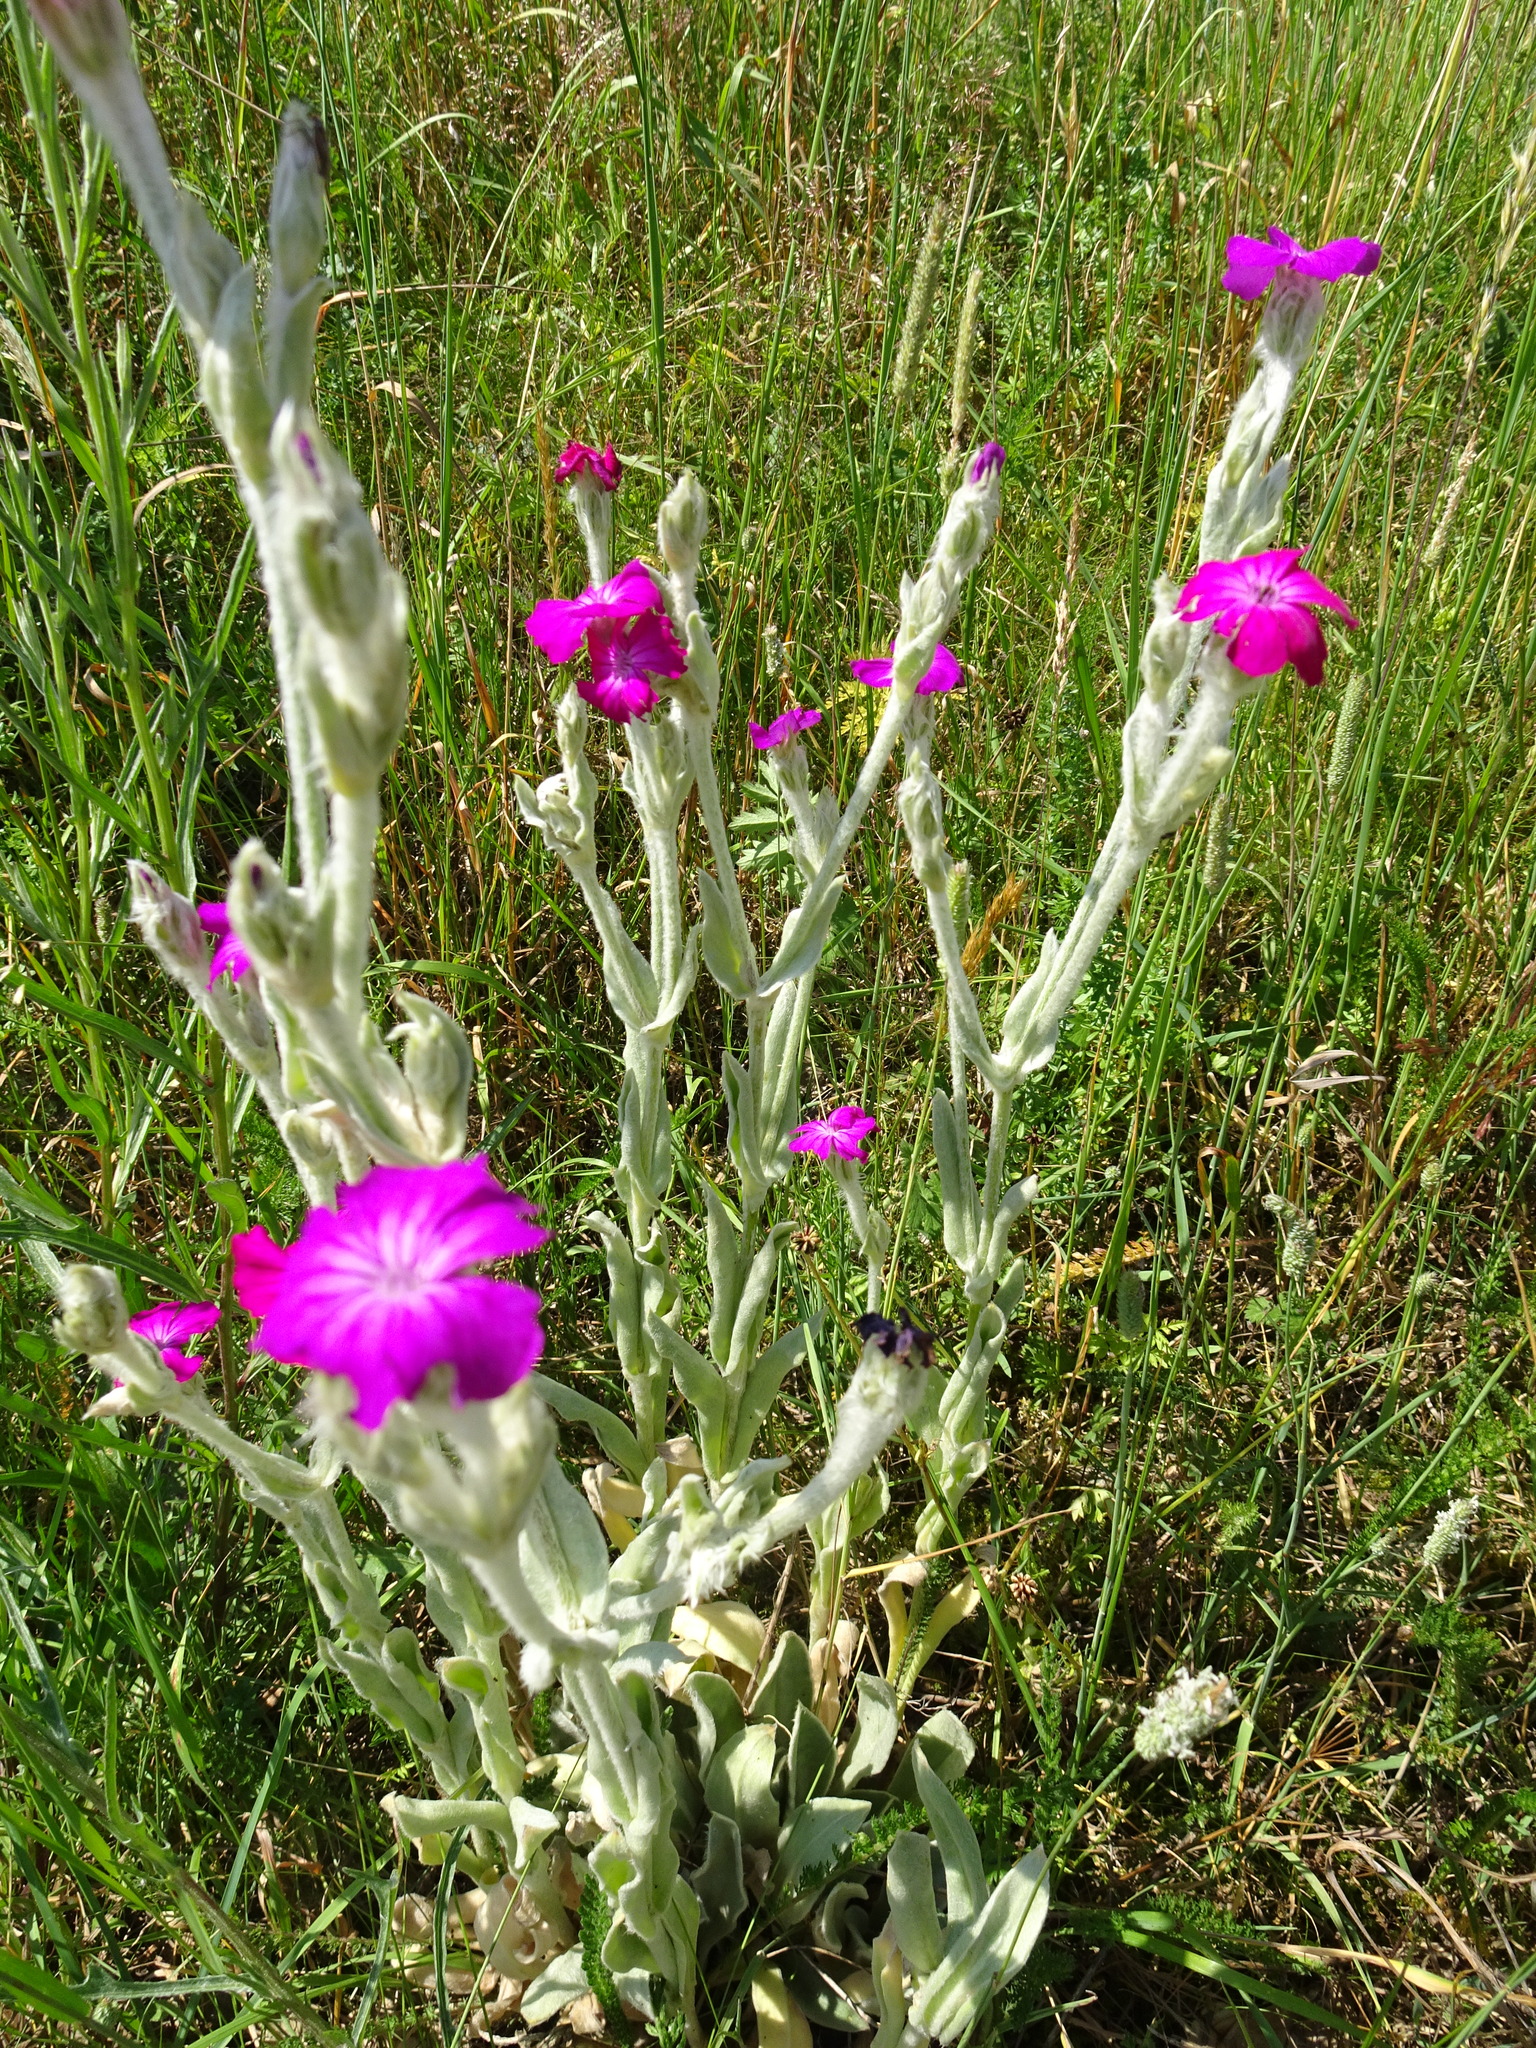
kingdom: Plantae
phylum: Tracheophyta
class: Magnoliopsida
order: Caryophyllales
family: Caryophyllaceae
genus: Silene
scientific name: Silene coronaria
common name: Rose campion
